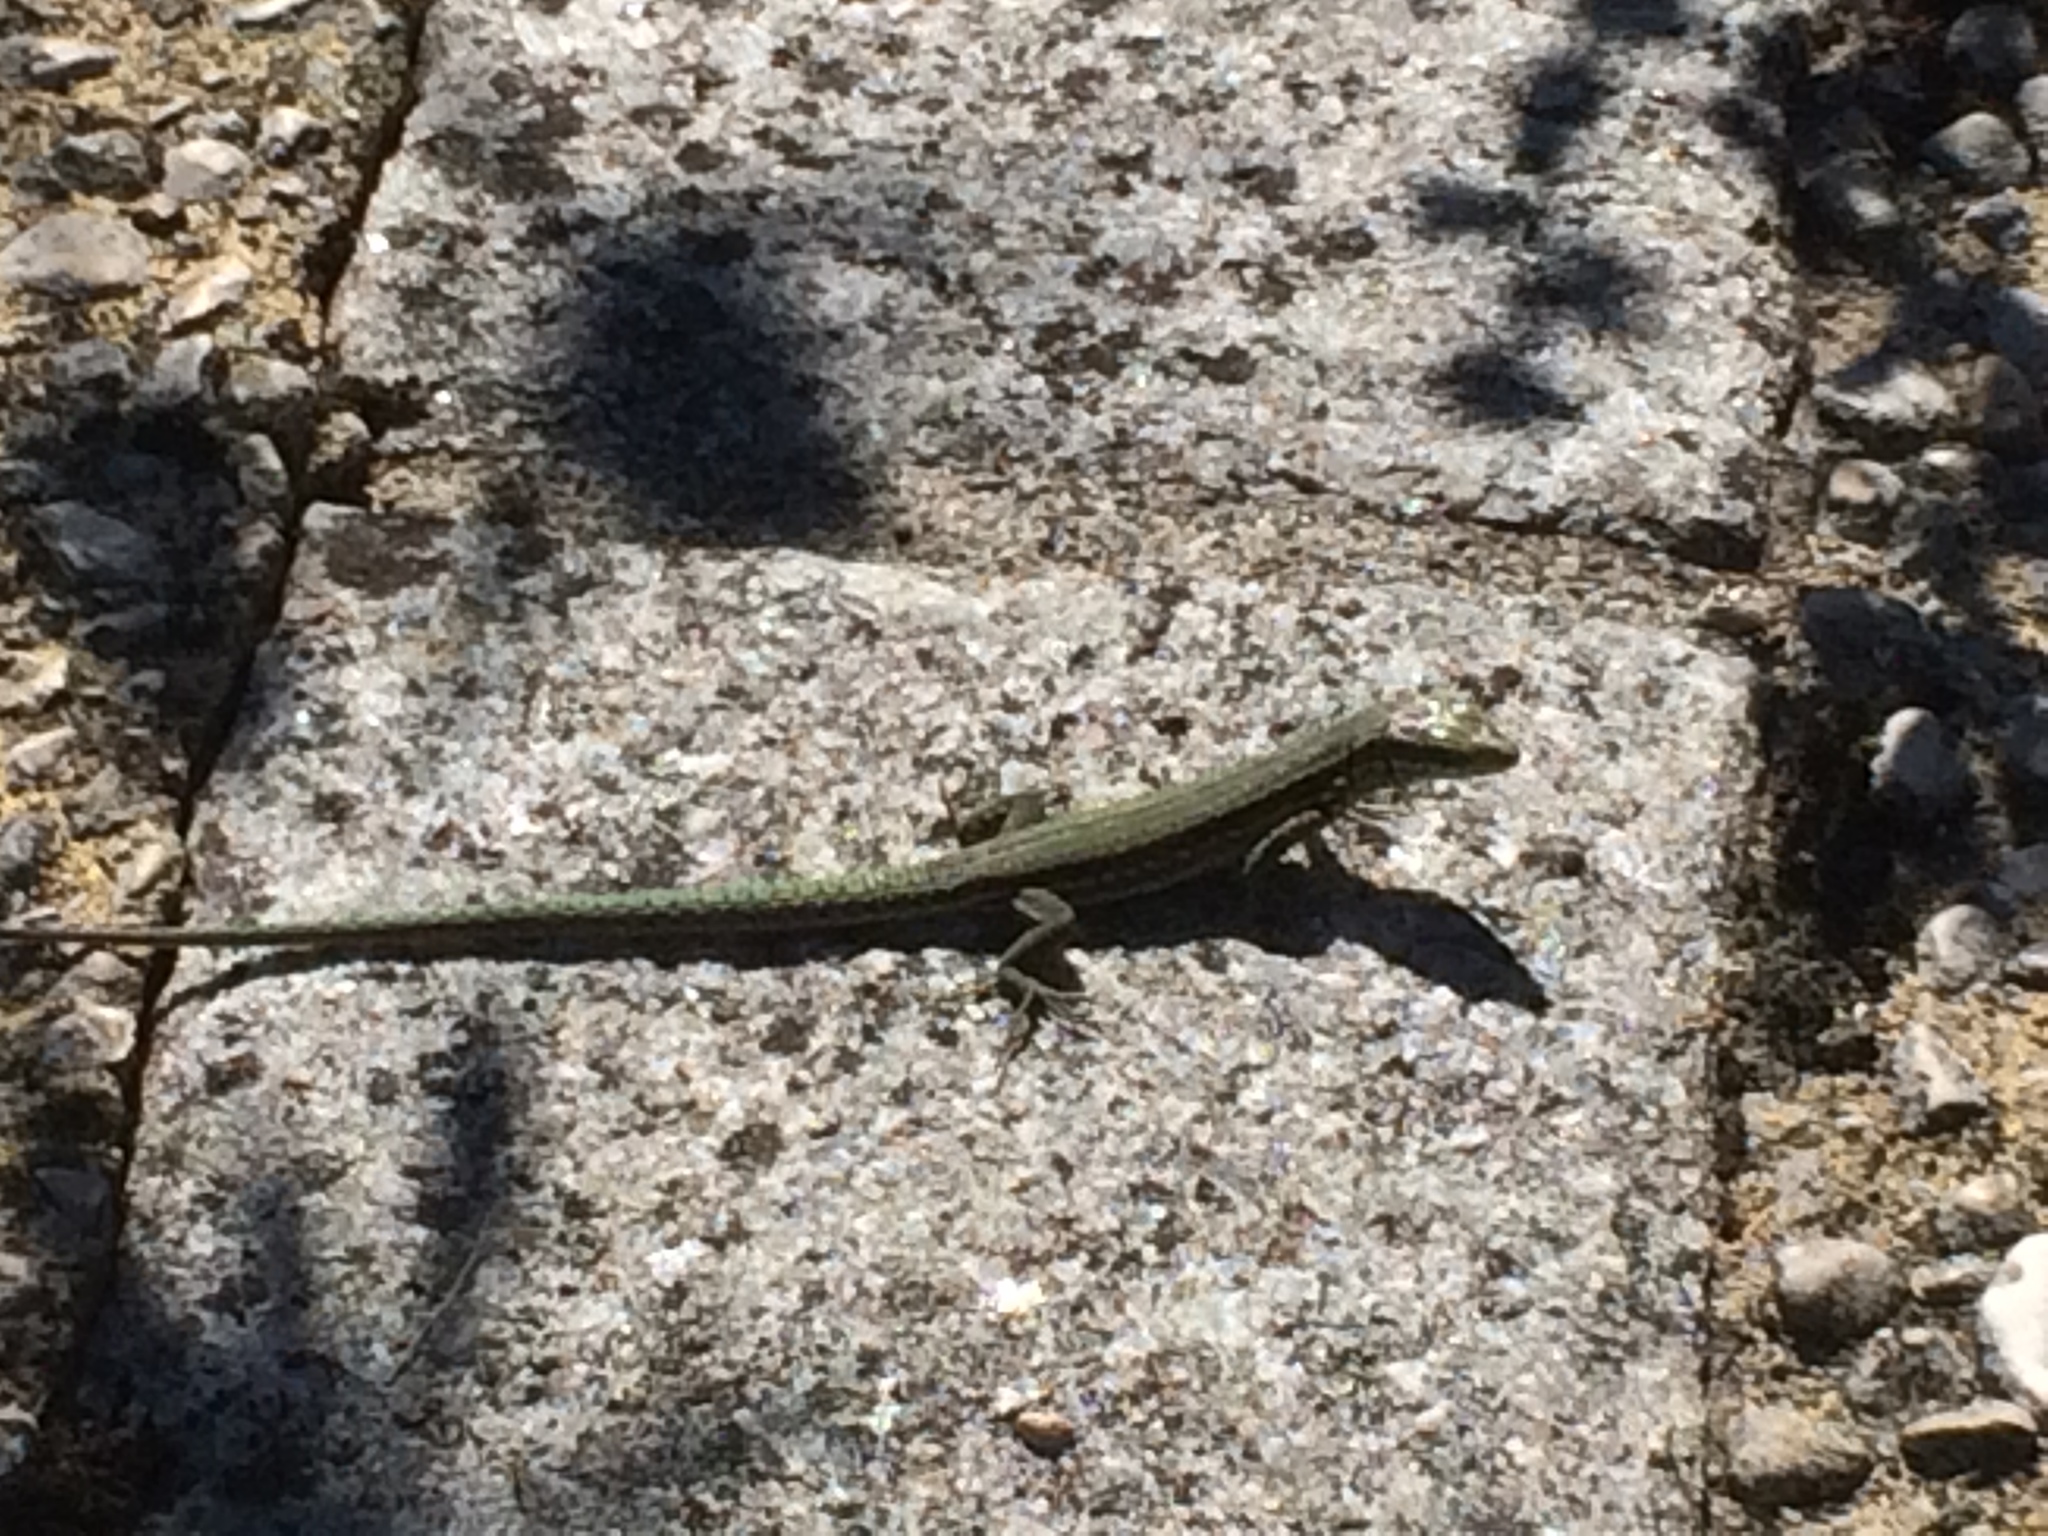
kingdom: Animalia
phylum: Chordata
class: Squamata
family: Lacertidae
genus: Podarcis
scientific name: Podarcis muralis
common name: Common wall lizard
